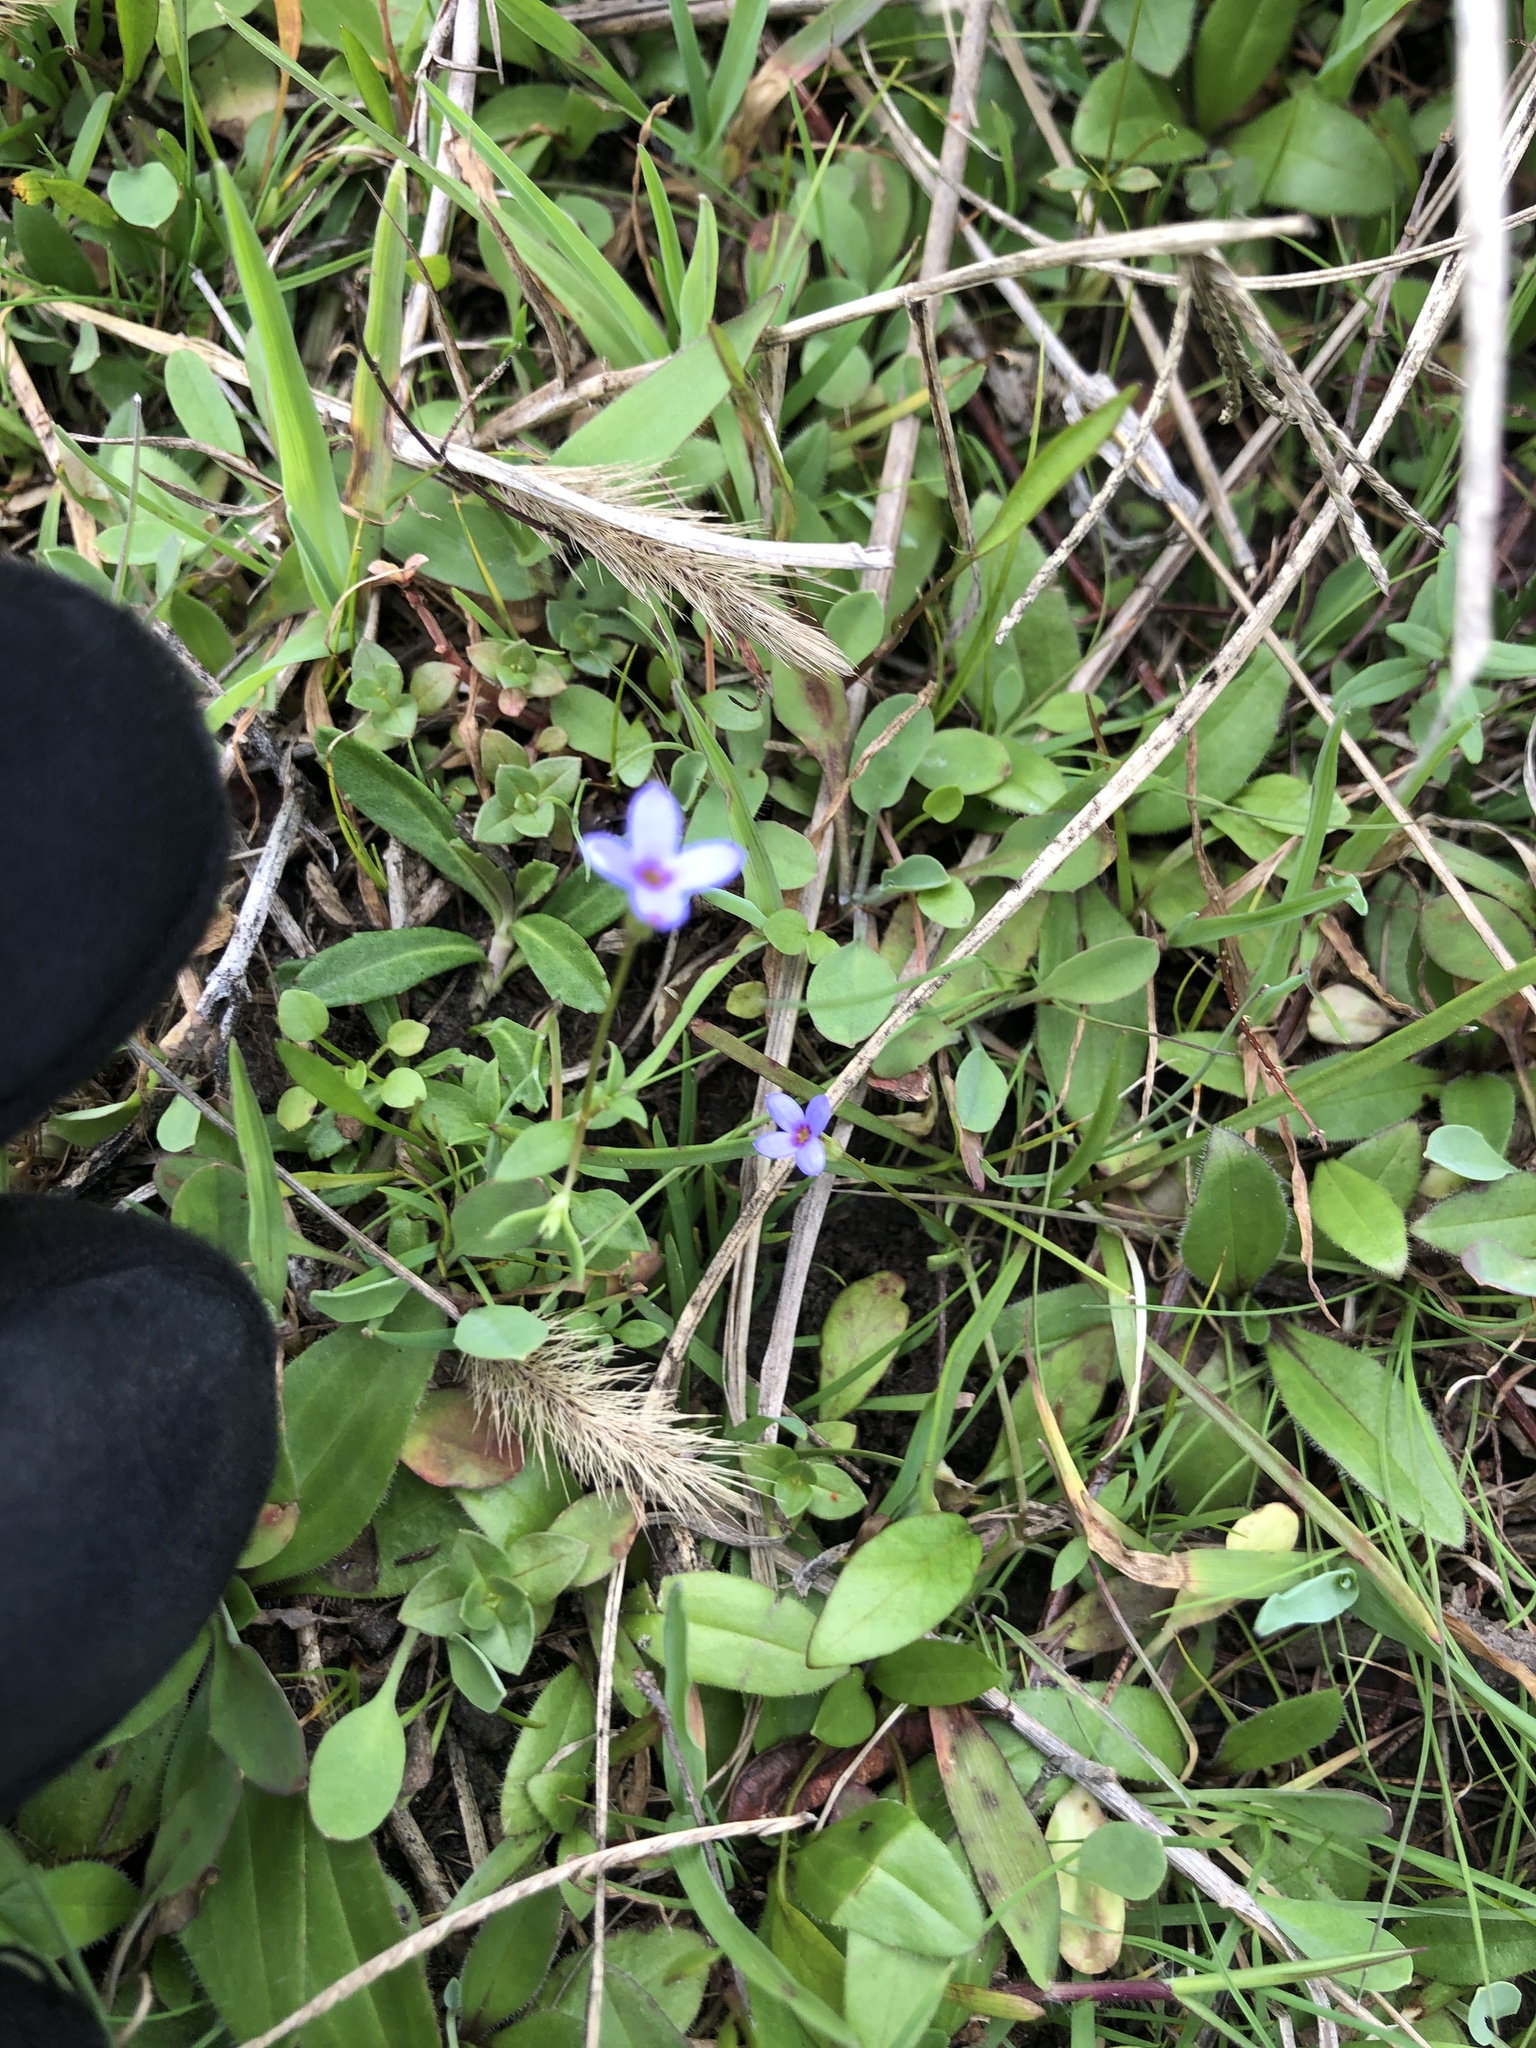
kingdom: Plantae
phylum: Tracheophyta
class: Magnoliopsida
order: Gentianales
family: Rubiaceae
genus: Houstonia
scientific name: Houstonia pusilla
